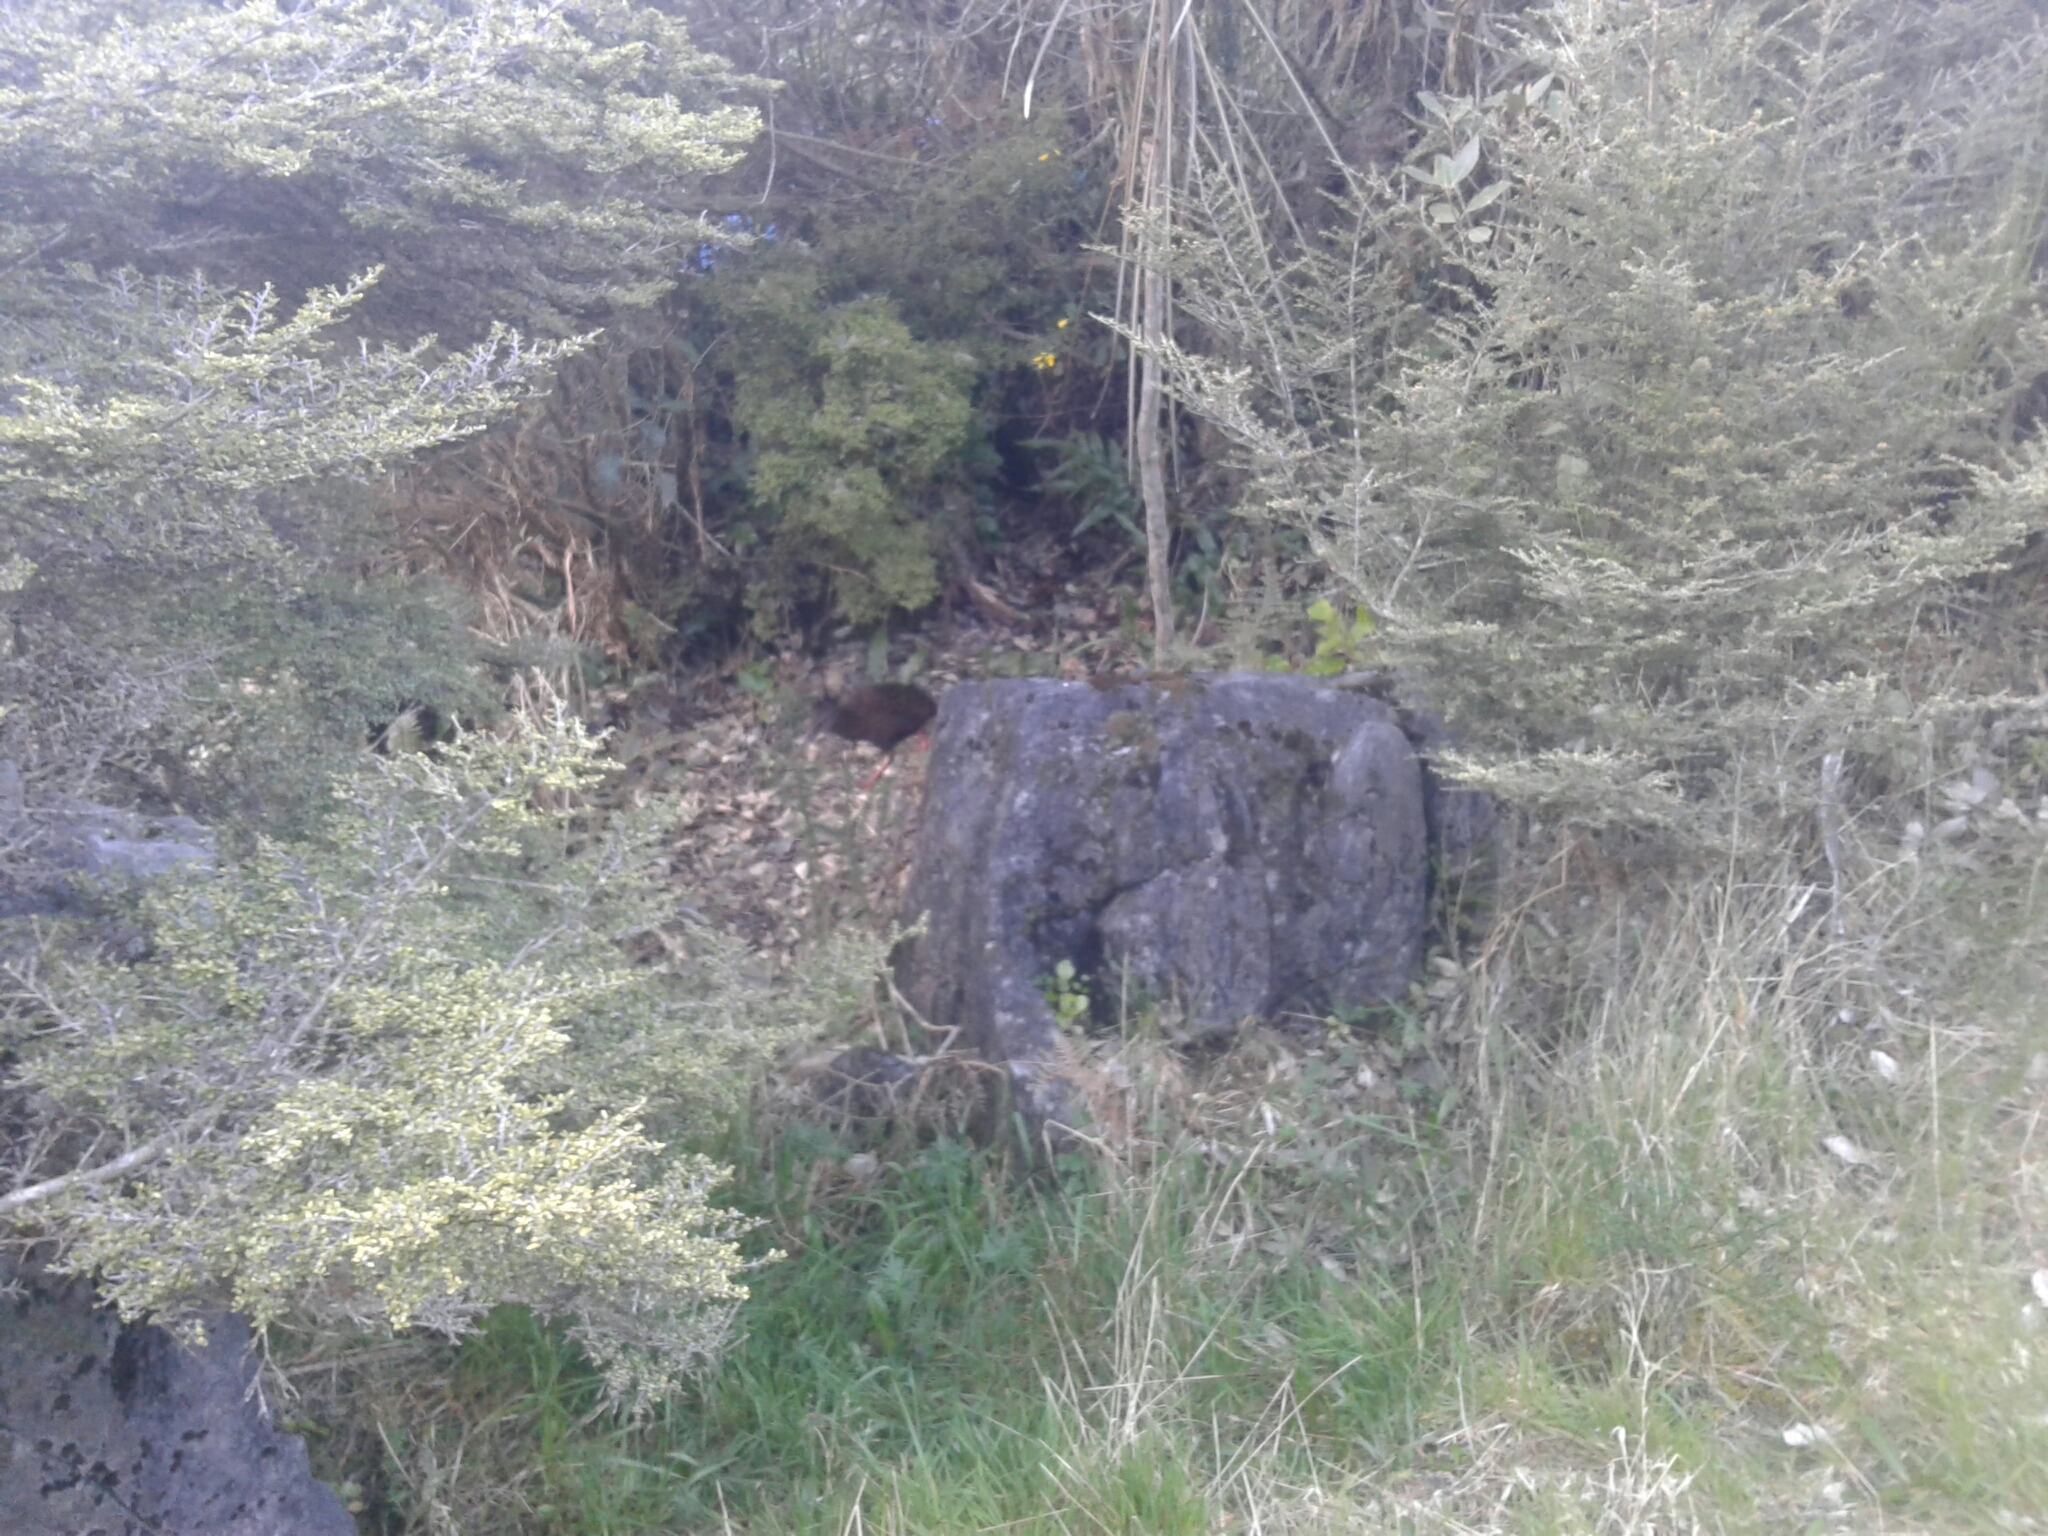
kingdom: Animalia
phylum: Chordata
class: Aves
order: Gruiformes
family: Rallidae
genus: Gallirallus
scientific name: Gallirallus australis
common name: Weka
